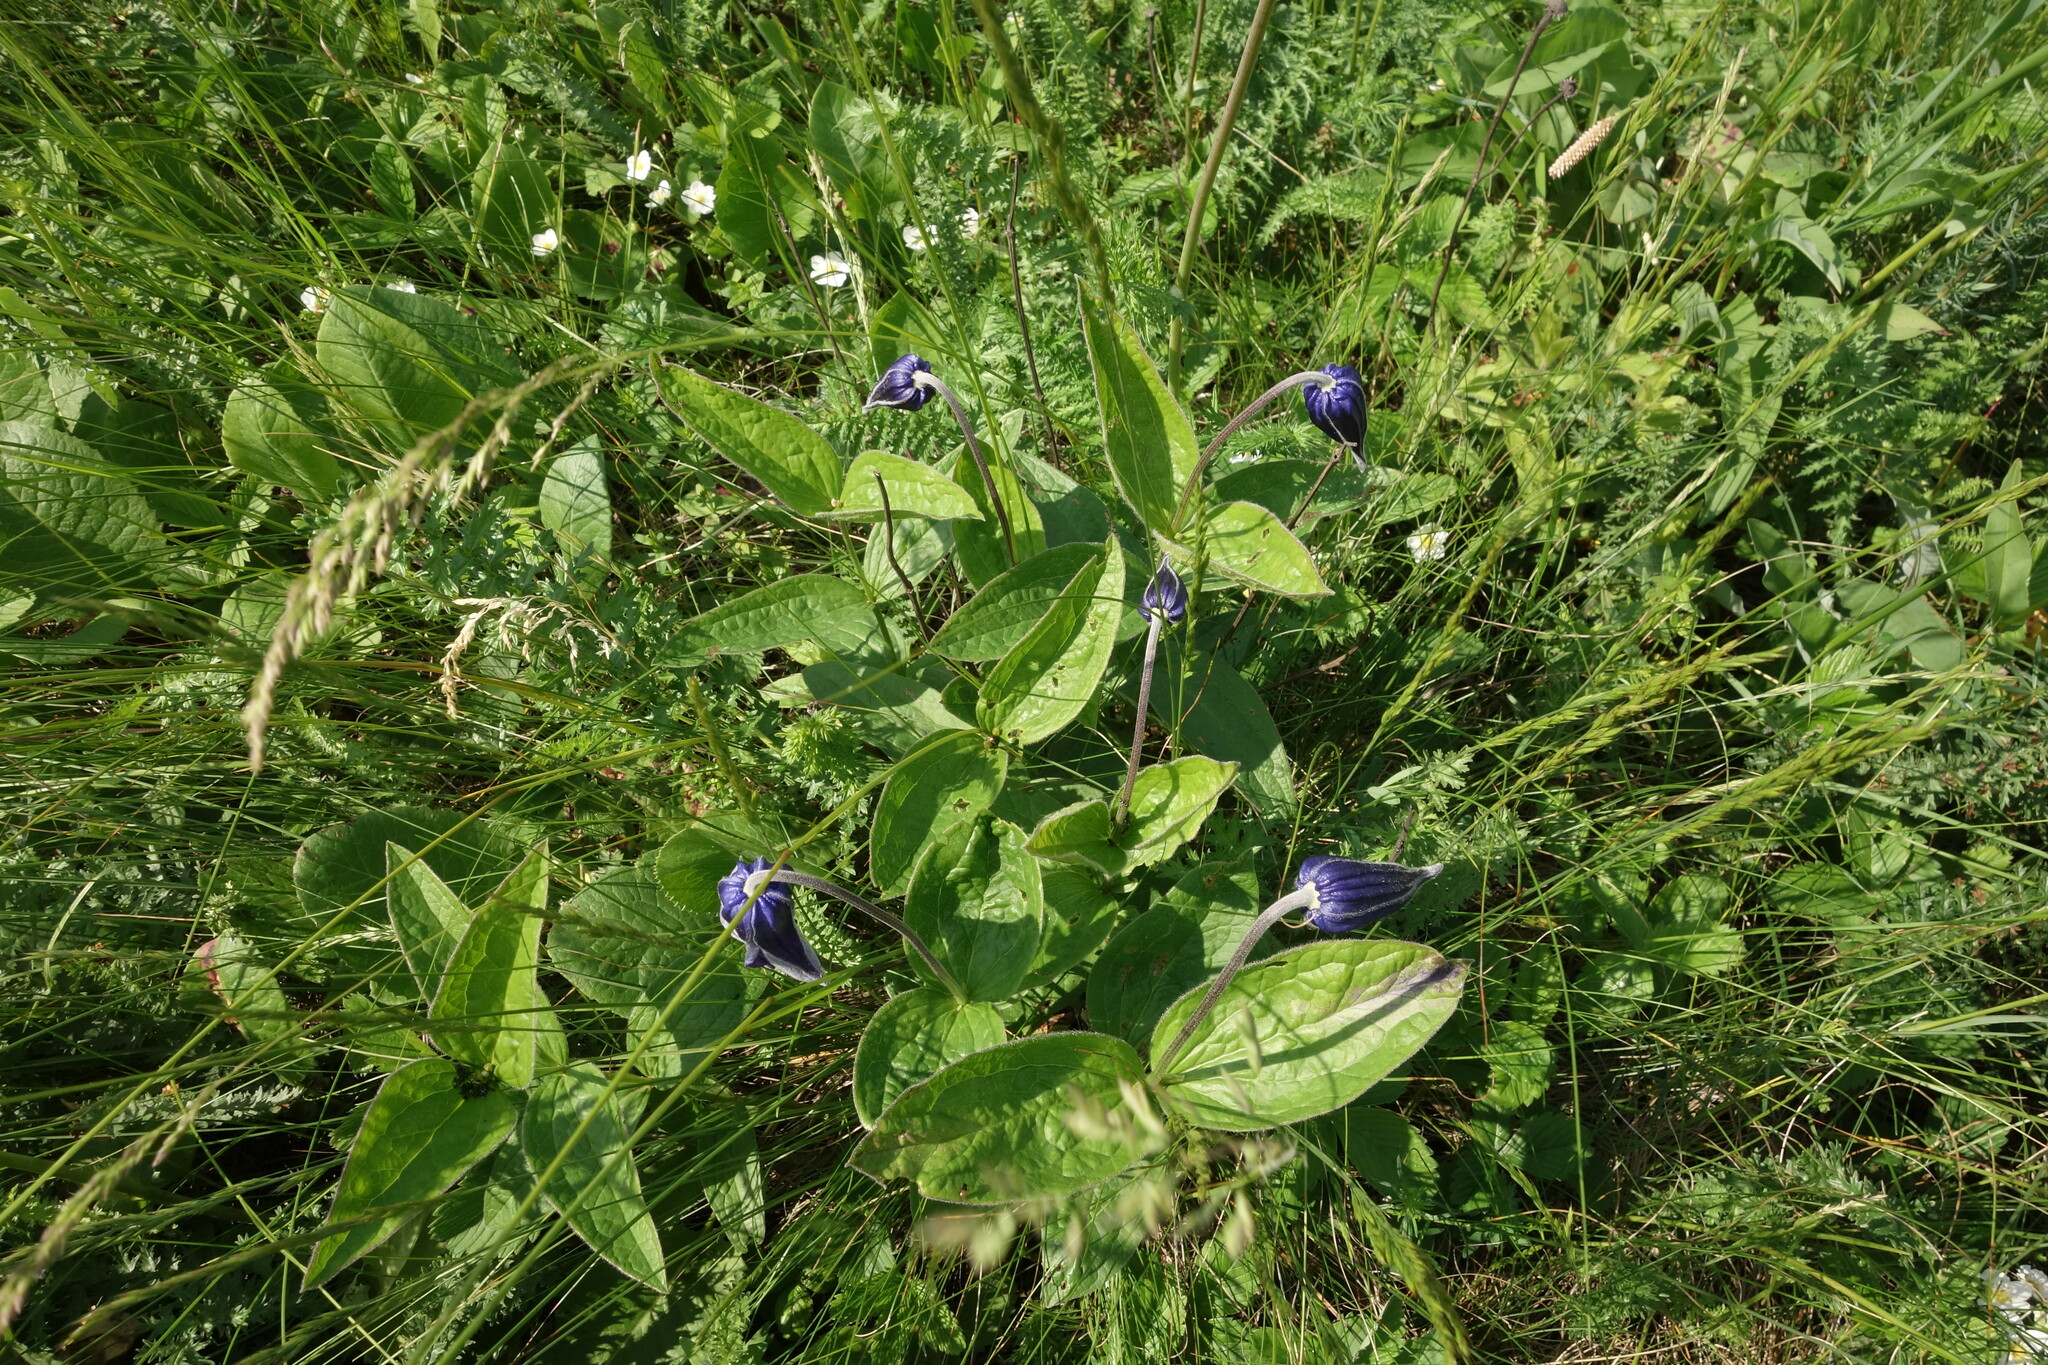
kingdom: Plantae
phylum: Tracheophyta
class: Magnoliopsida
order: Ranunculales
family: Ranunculaceae
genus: Clematis
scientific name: Clematis integrifolia
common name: Solitary clematis
